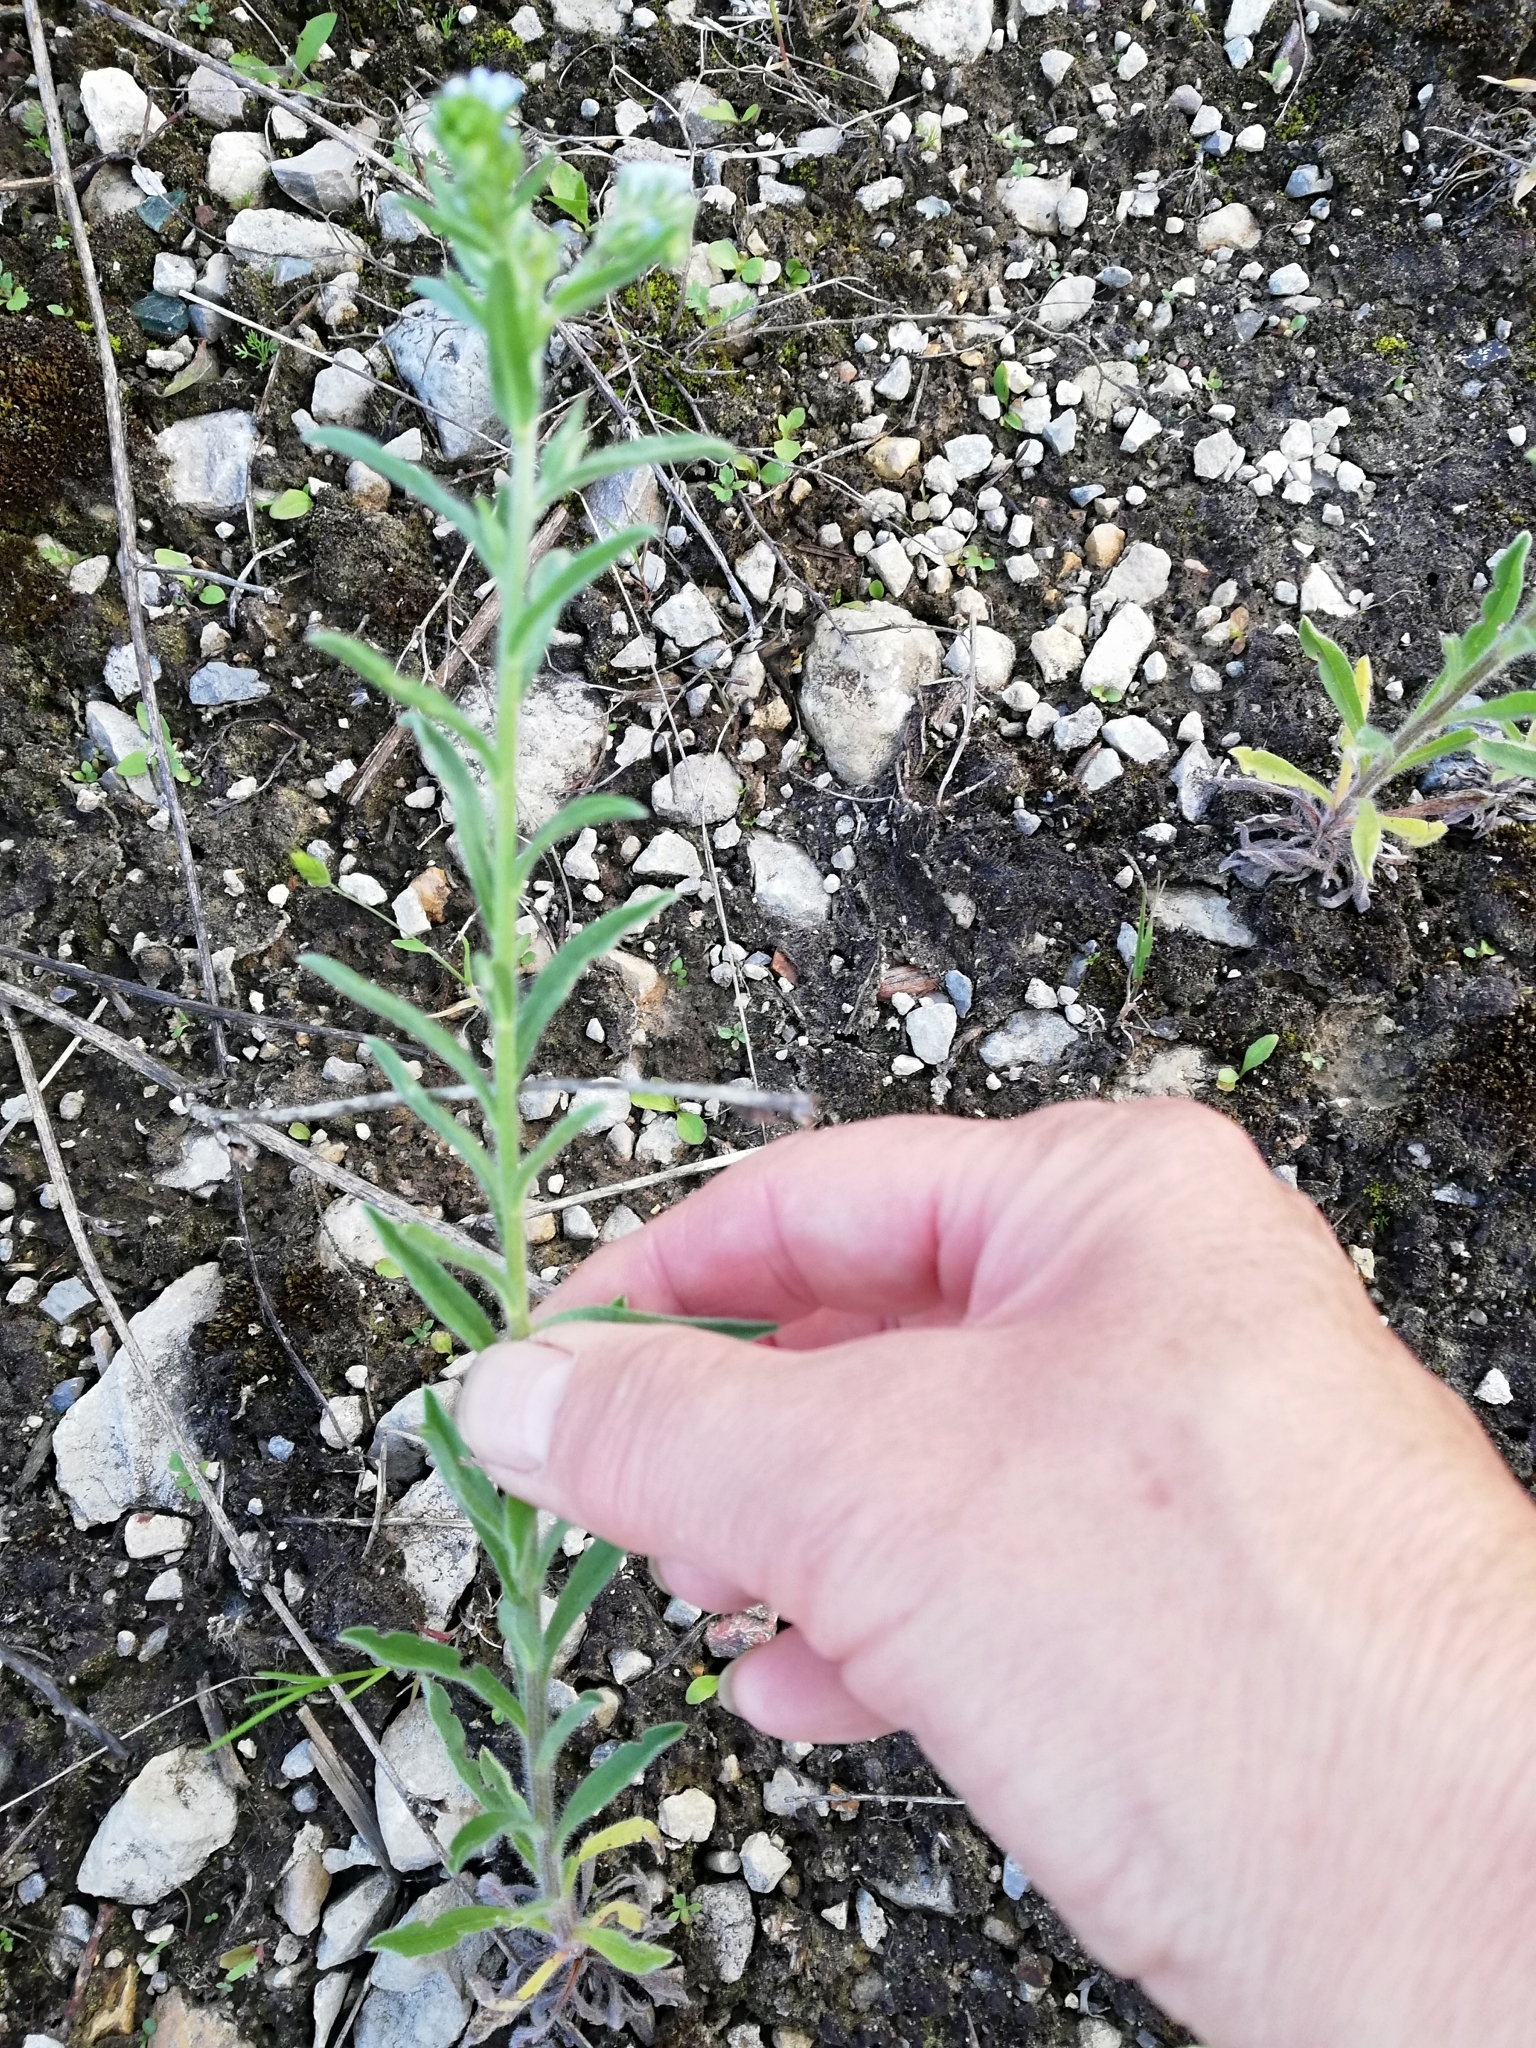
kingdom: Plantae
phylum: Tracheophyta
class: Magnoliopsida
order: Boraginales
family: Boraginaceae
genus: Lappula
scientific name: Lappula squarrosa
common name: European stickseed
